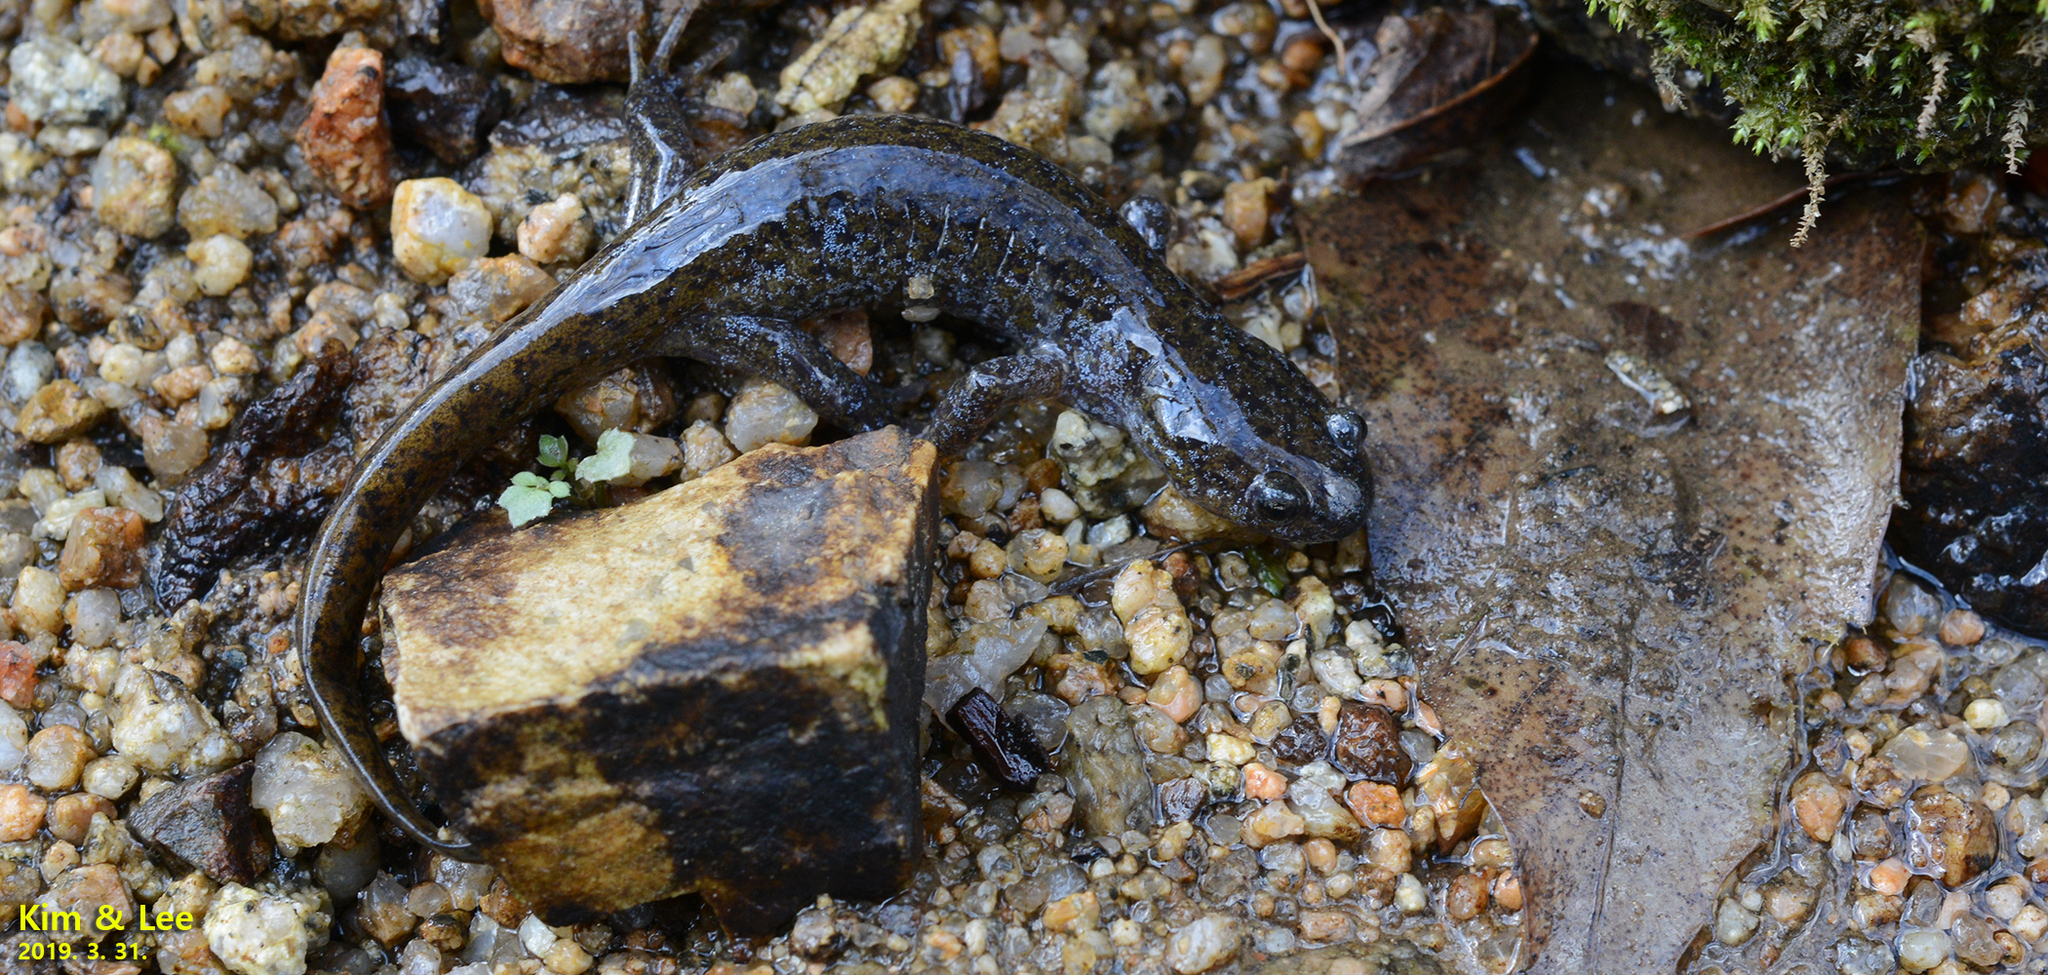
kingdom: Animalia
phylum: Chordata
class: Amphibia
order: Caudata
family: Hynobiidae
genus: Hynobius
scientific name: Hynobius leechii
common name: Gensan salamander
